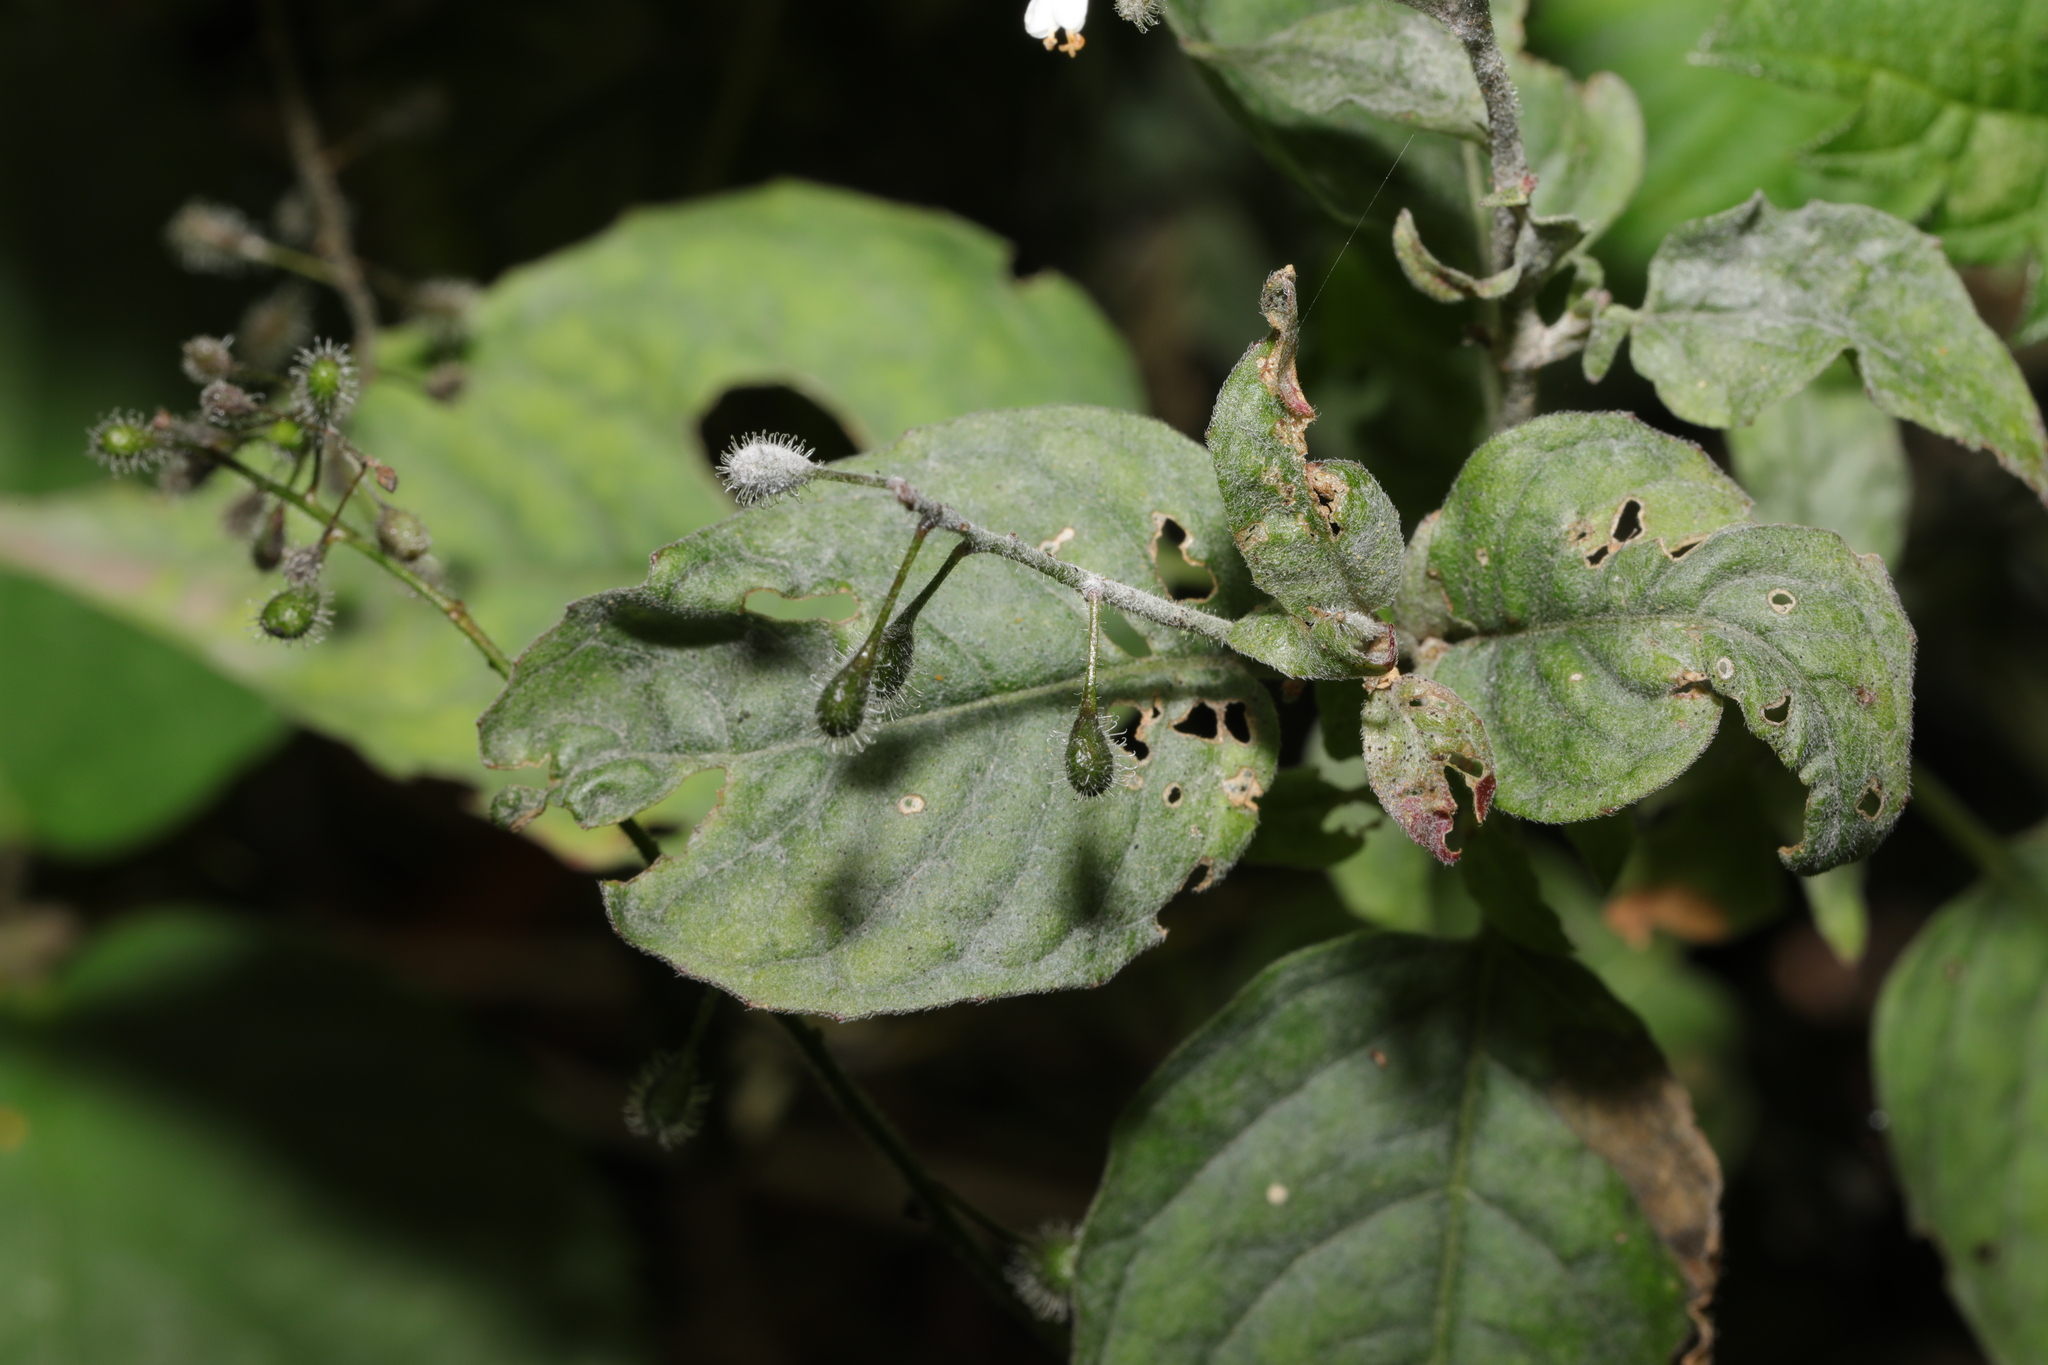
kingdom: Fungi
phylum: Ascomycota
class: Leotiomycetes
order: Helotiales
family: Erysiphaceae
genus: Erysiphe
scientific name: Erysiphe circaeae
